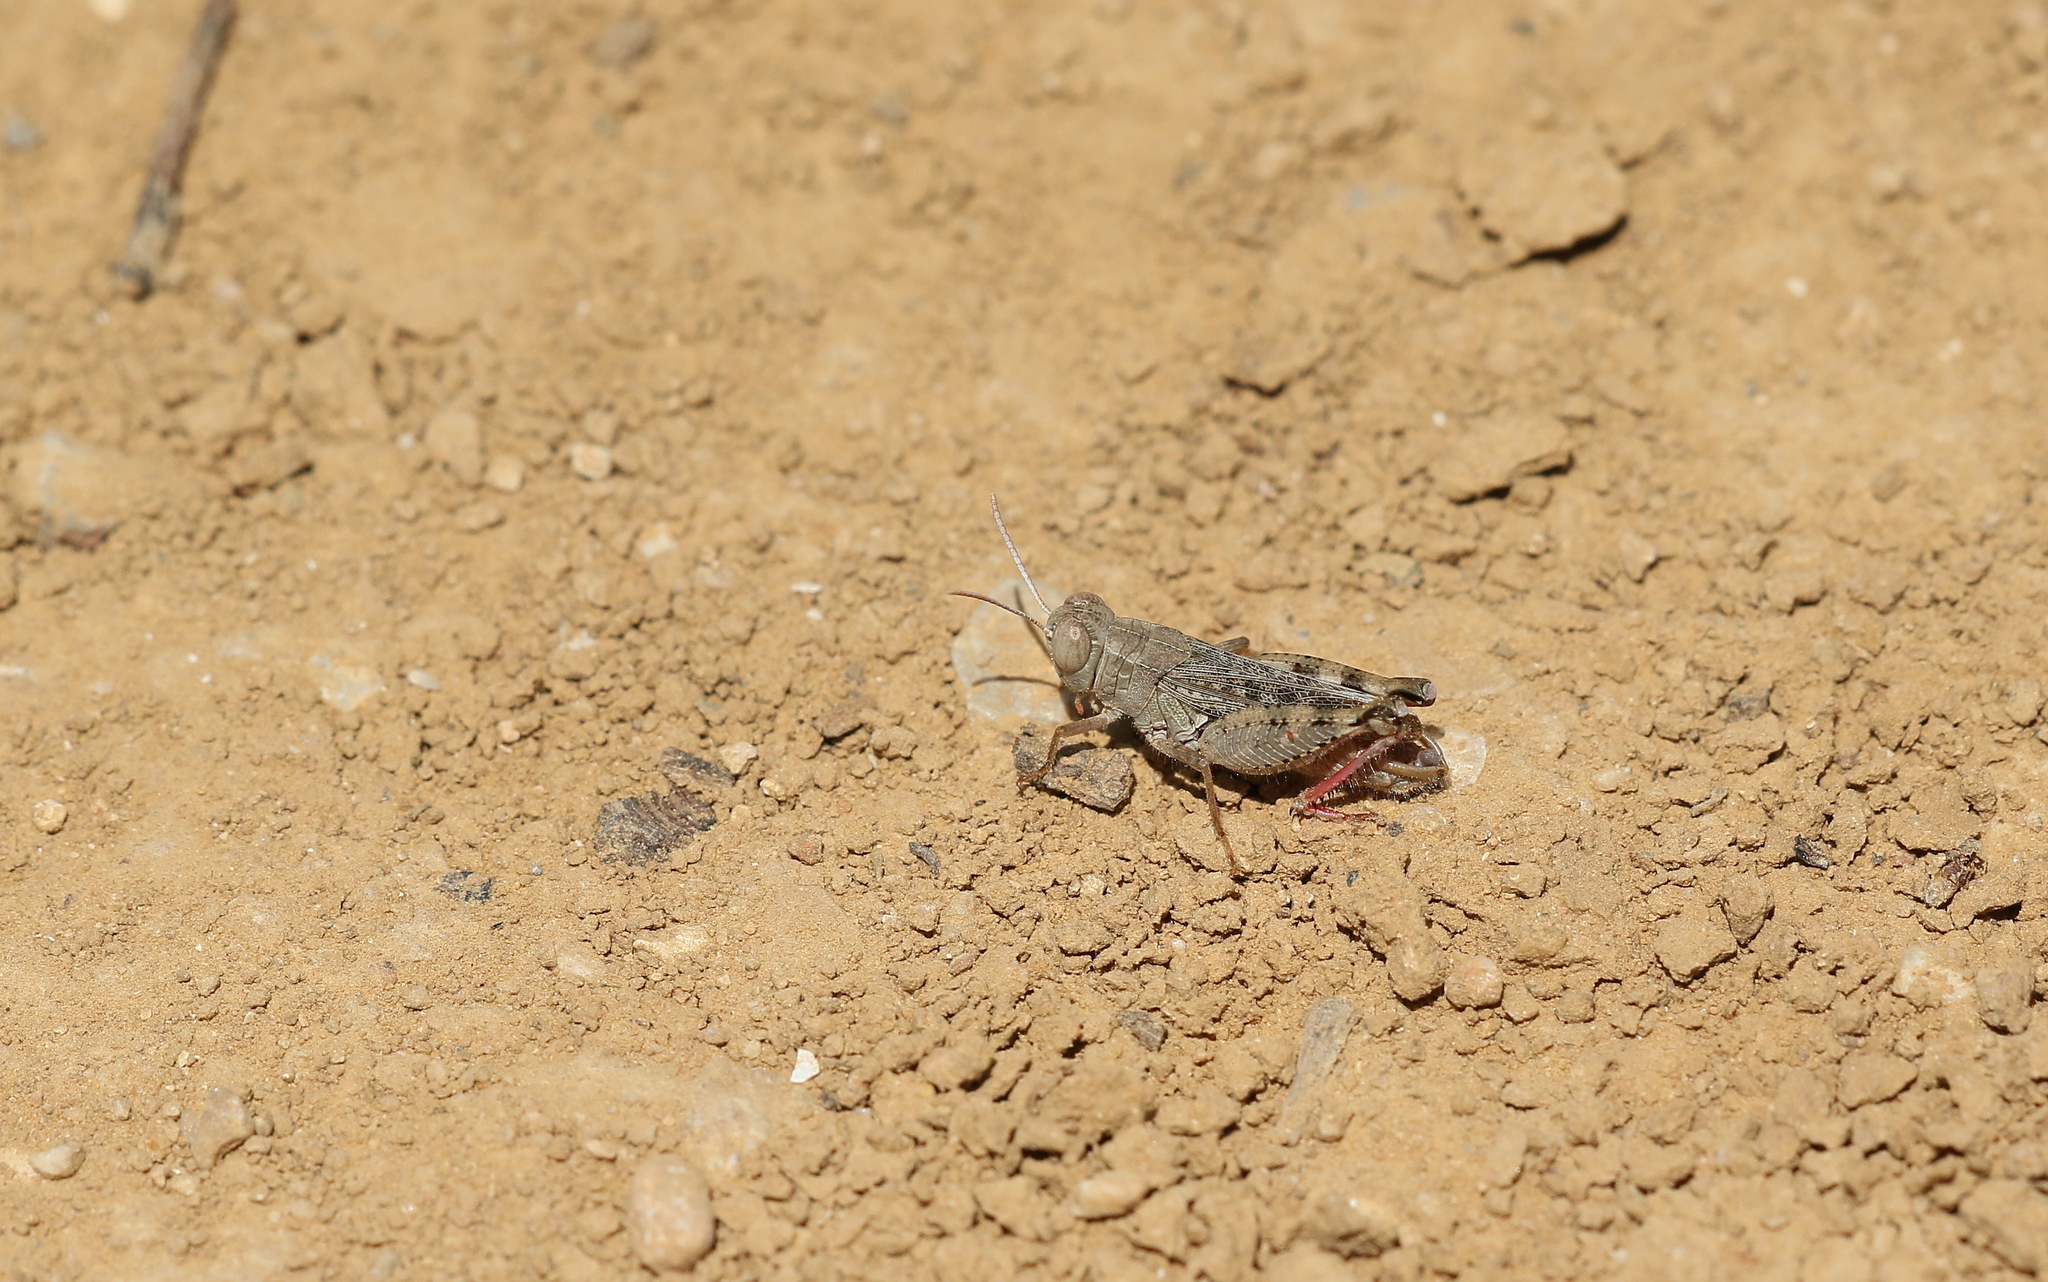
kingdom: Animalia
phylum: Arthropoda
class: Insecta
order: Orthoptera
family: Acrididae
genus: Calliptamus
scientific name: Calliptamus barbarus
